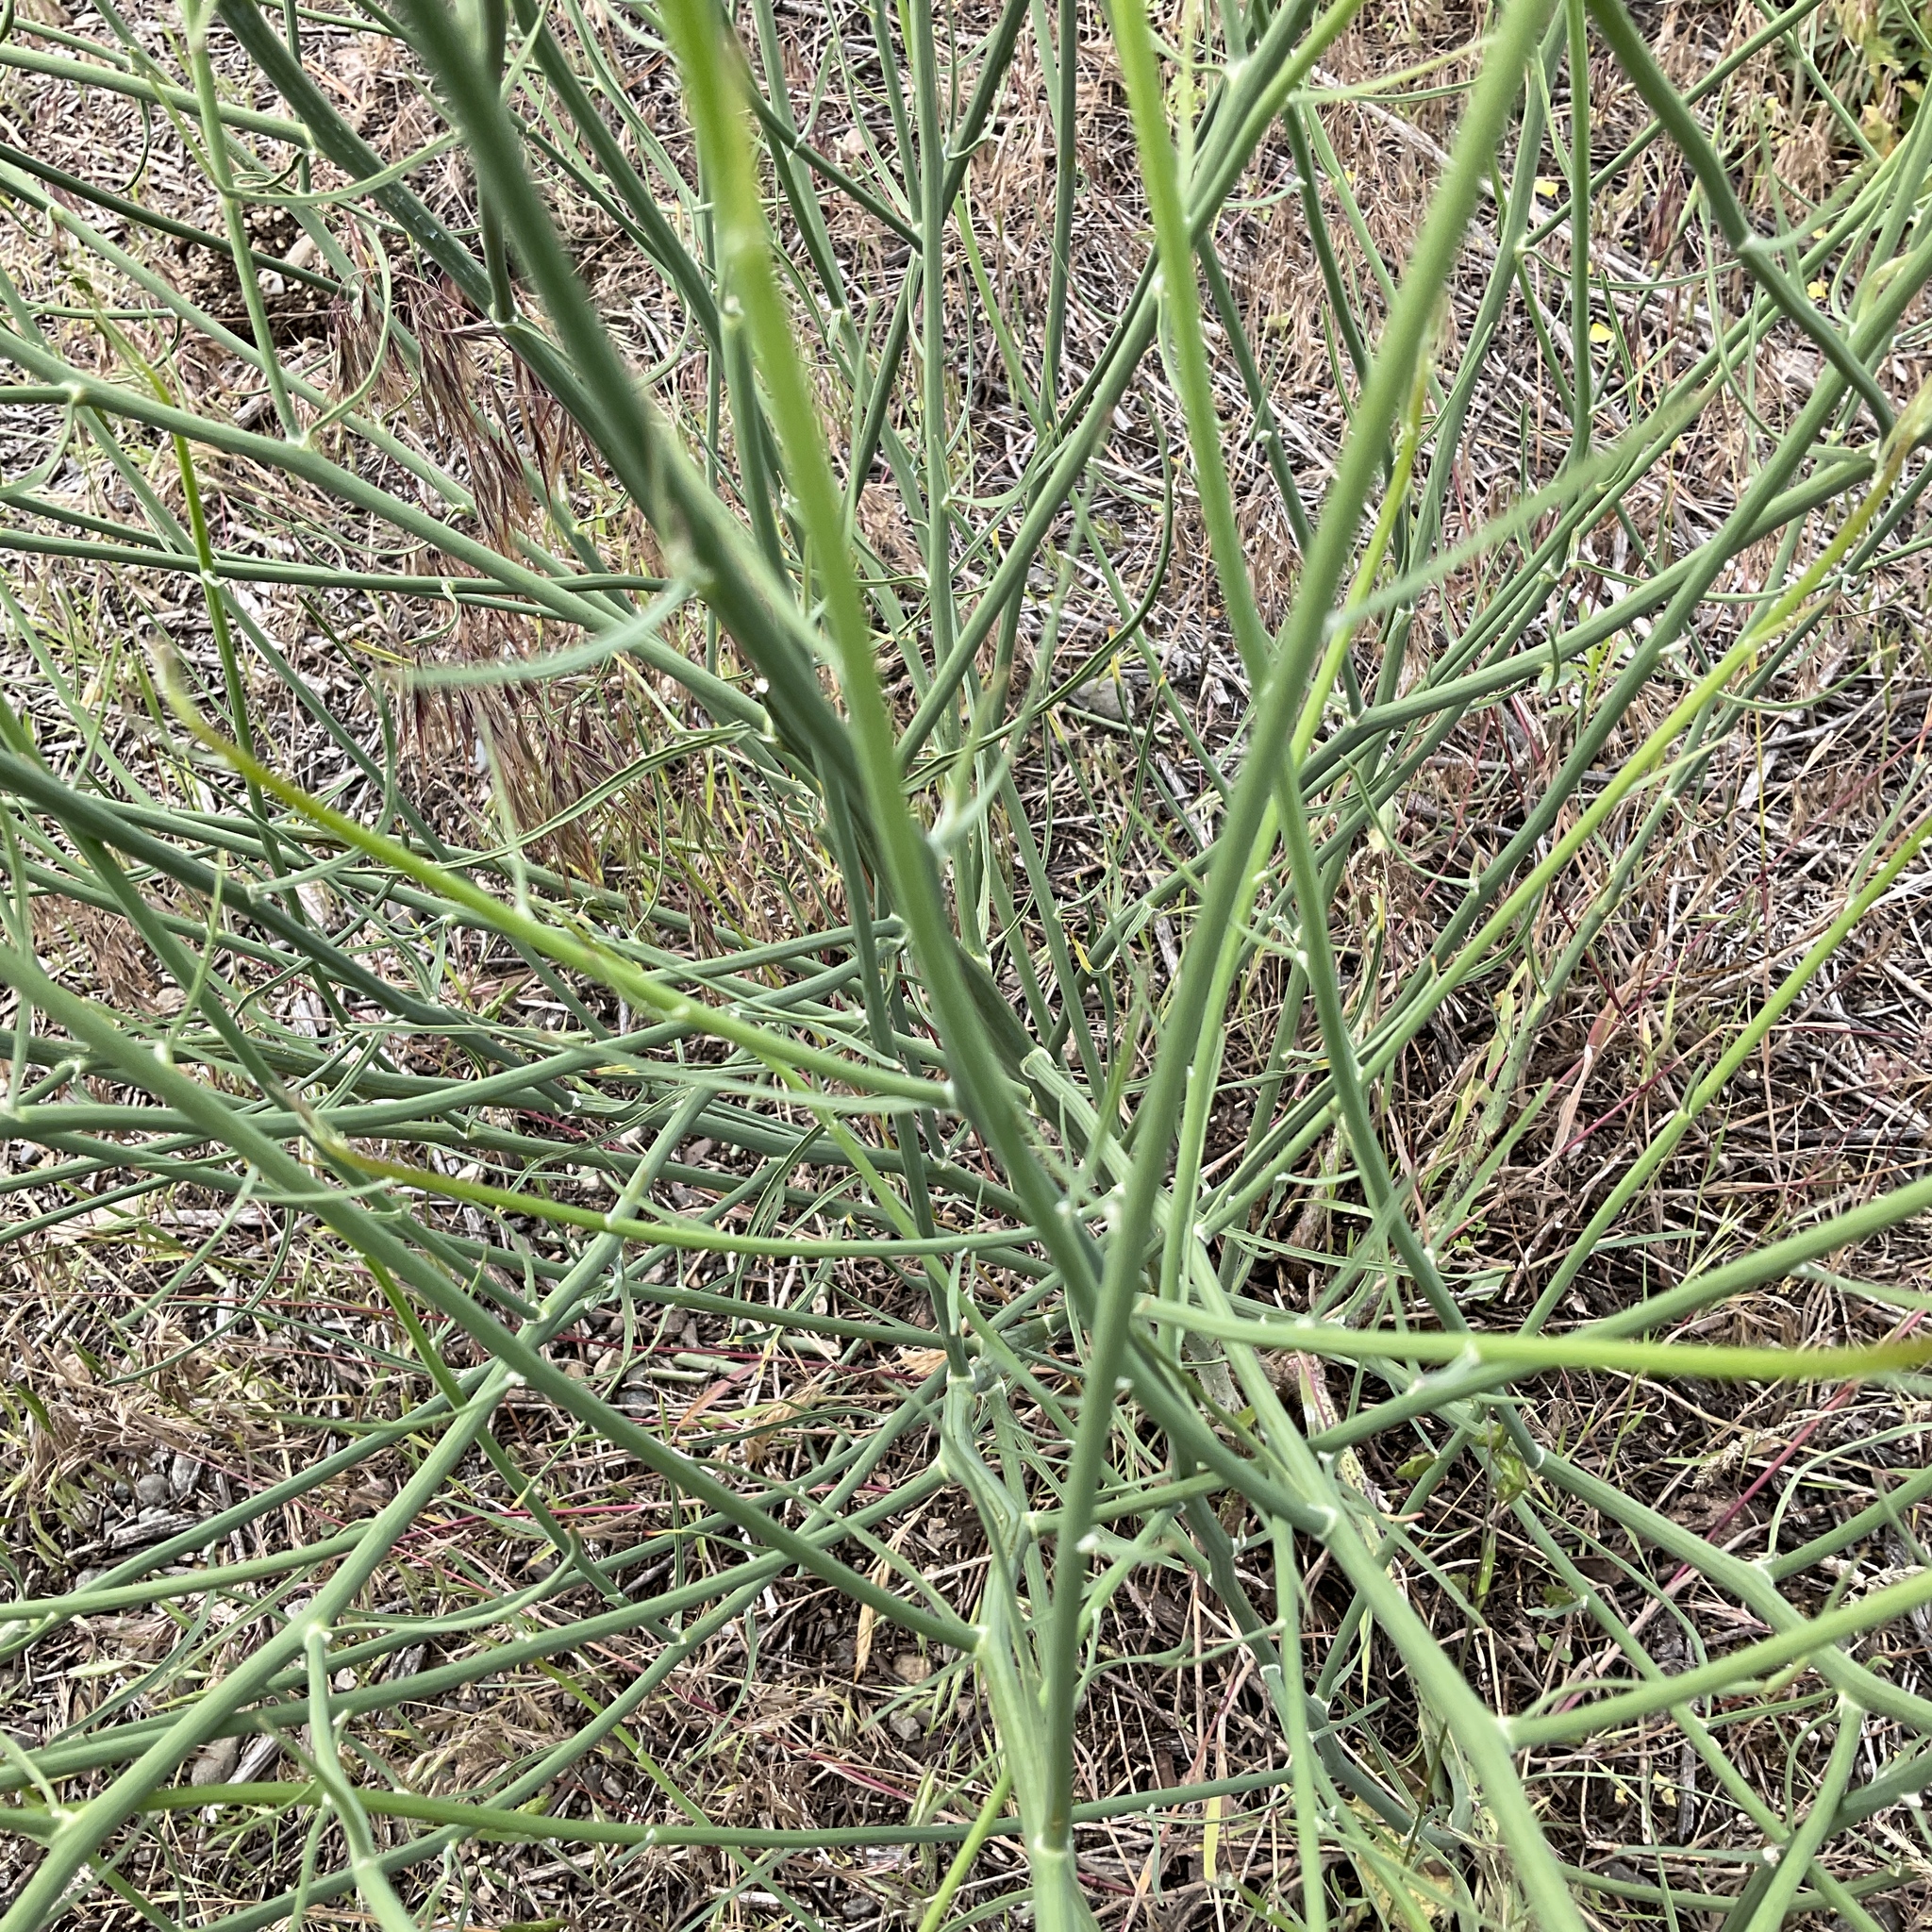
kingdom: Plantae
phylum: Tracheophyta
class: Magnoliopsida
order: Asterales
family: Asteraceae
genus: Chondrilla
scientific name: Chondrilla juncea
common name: Skeleton weed
